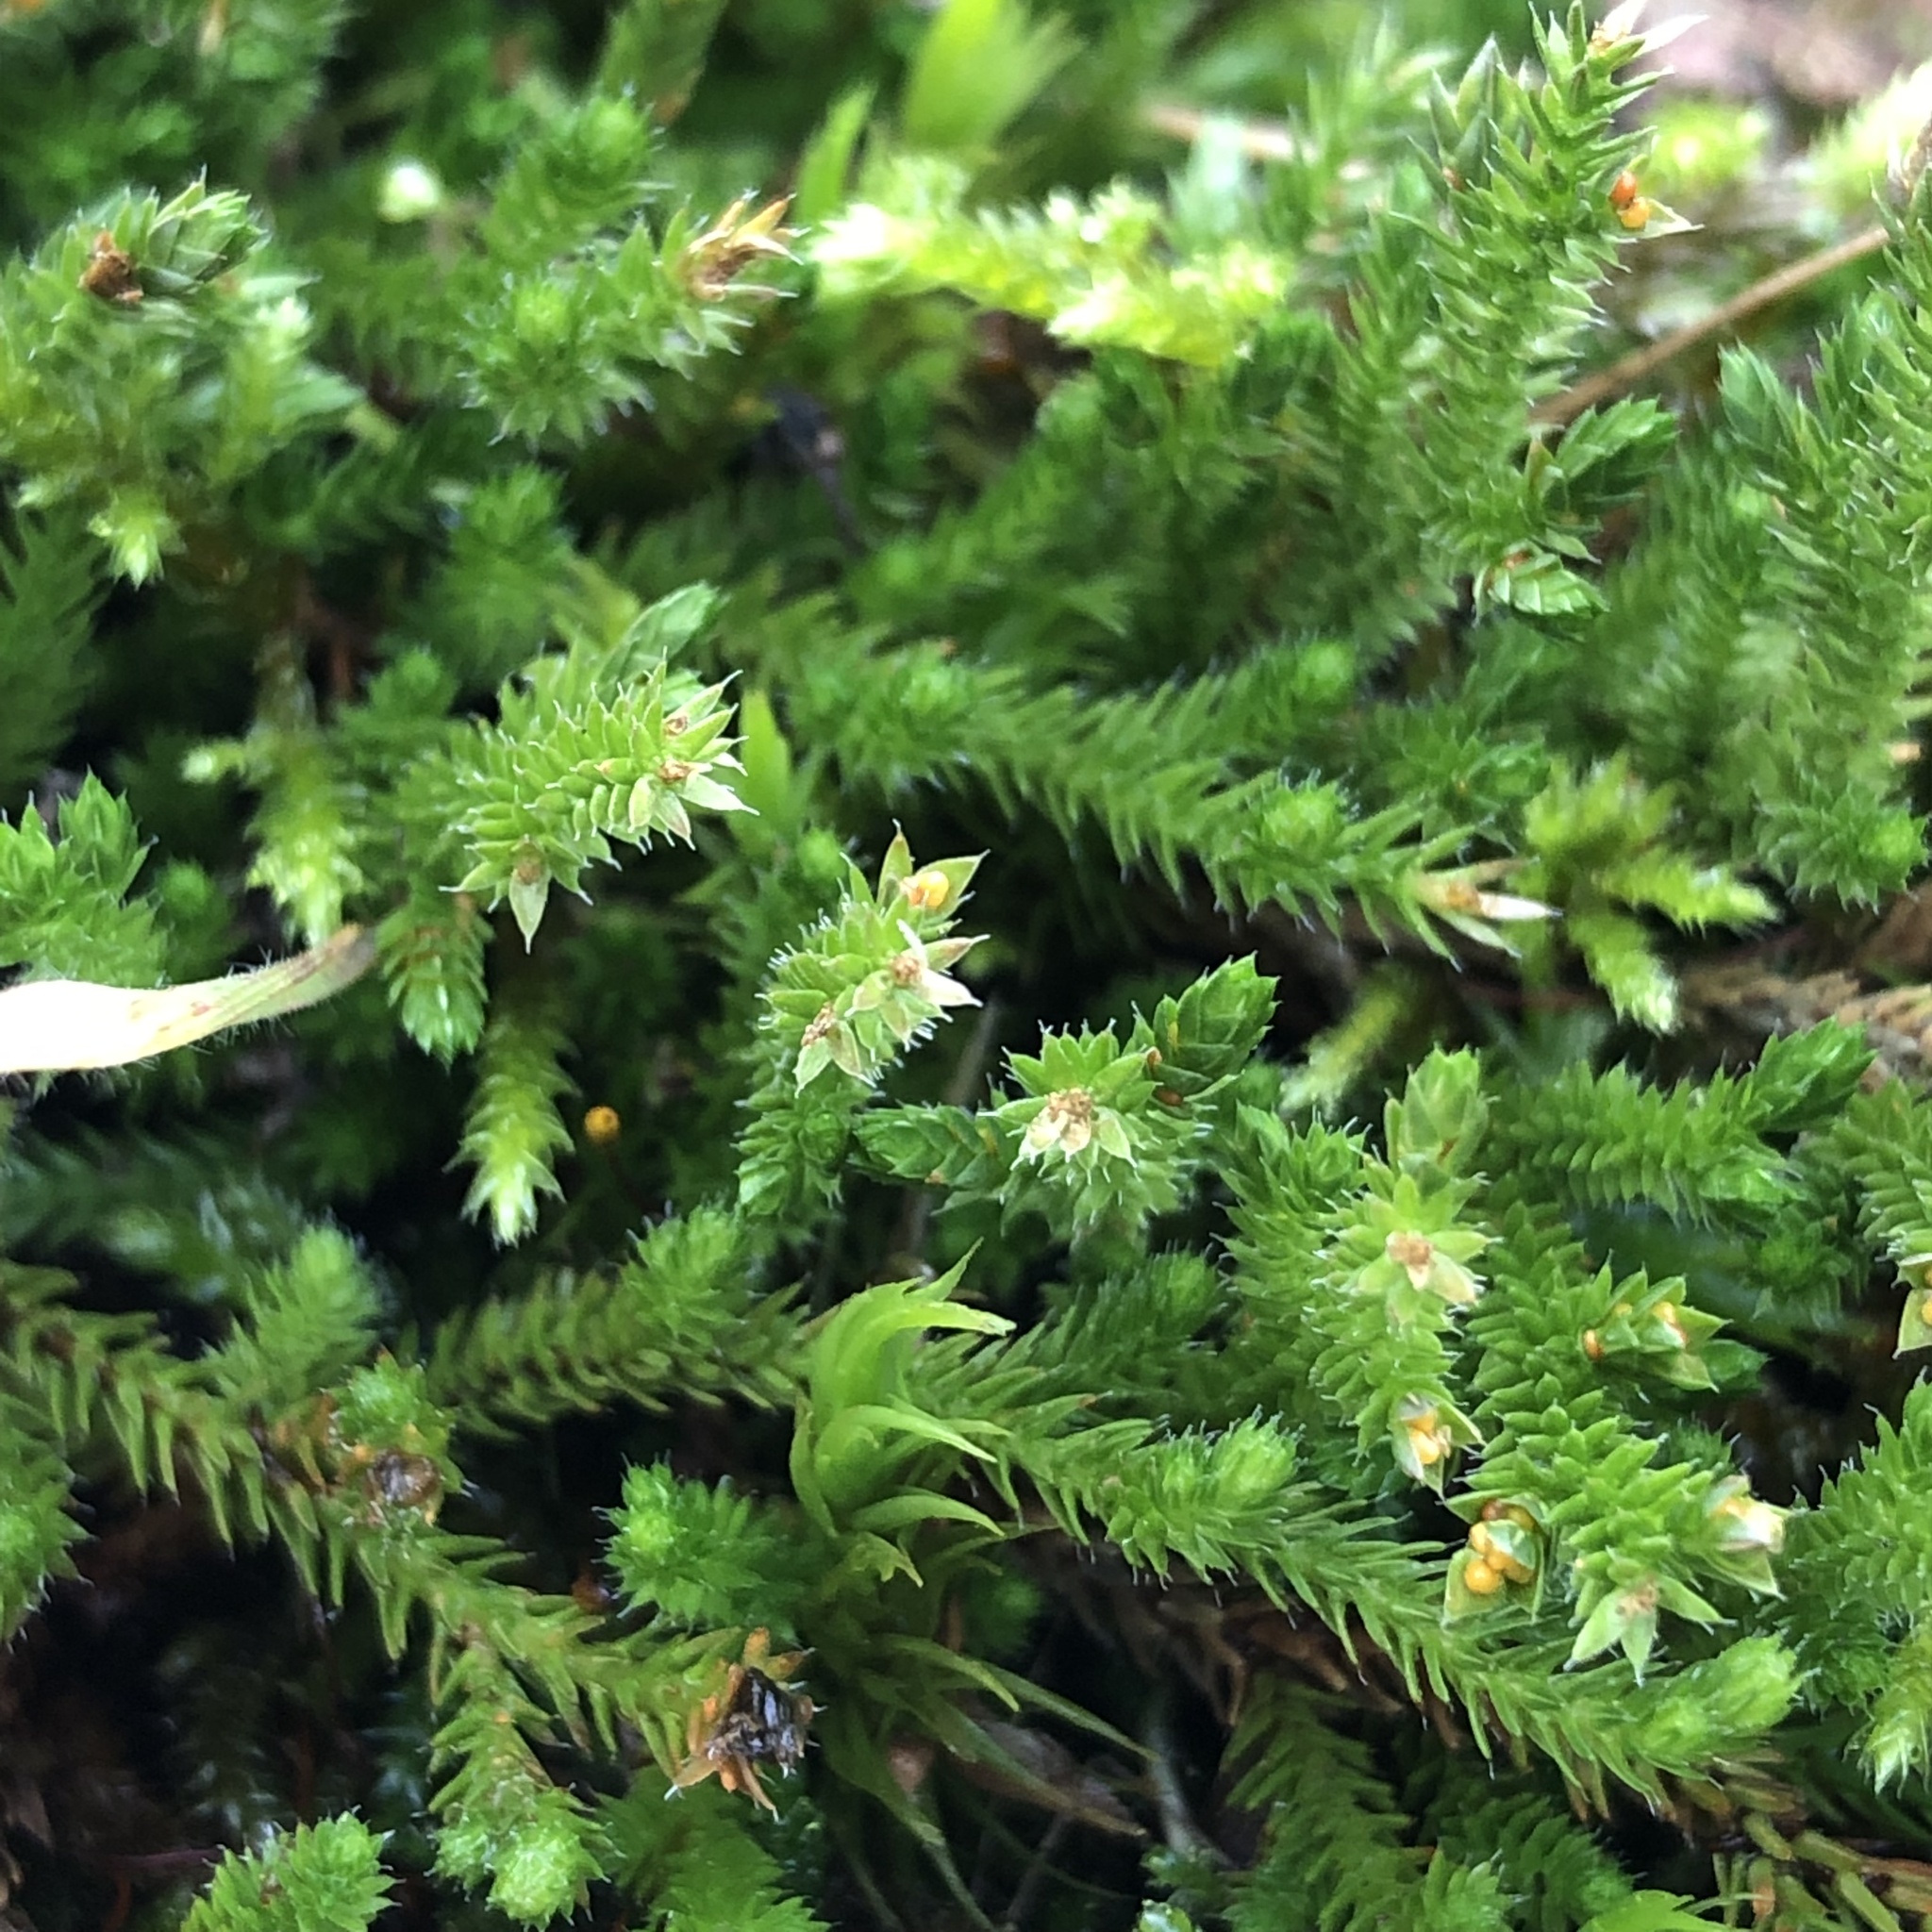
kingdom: Plantae
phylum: Tracheophyta
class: Lycopodiopsida
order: Selaginellales
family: Selaginellaceae
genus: Selaginella
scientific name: Selaginella wallacei
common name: Wallace's selaginella
